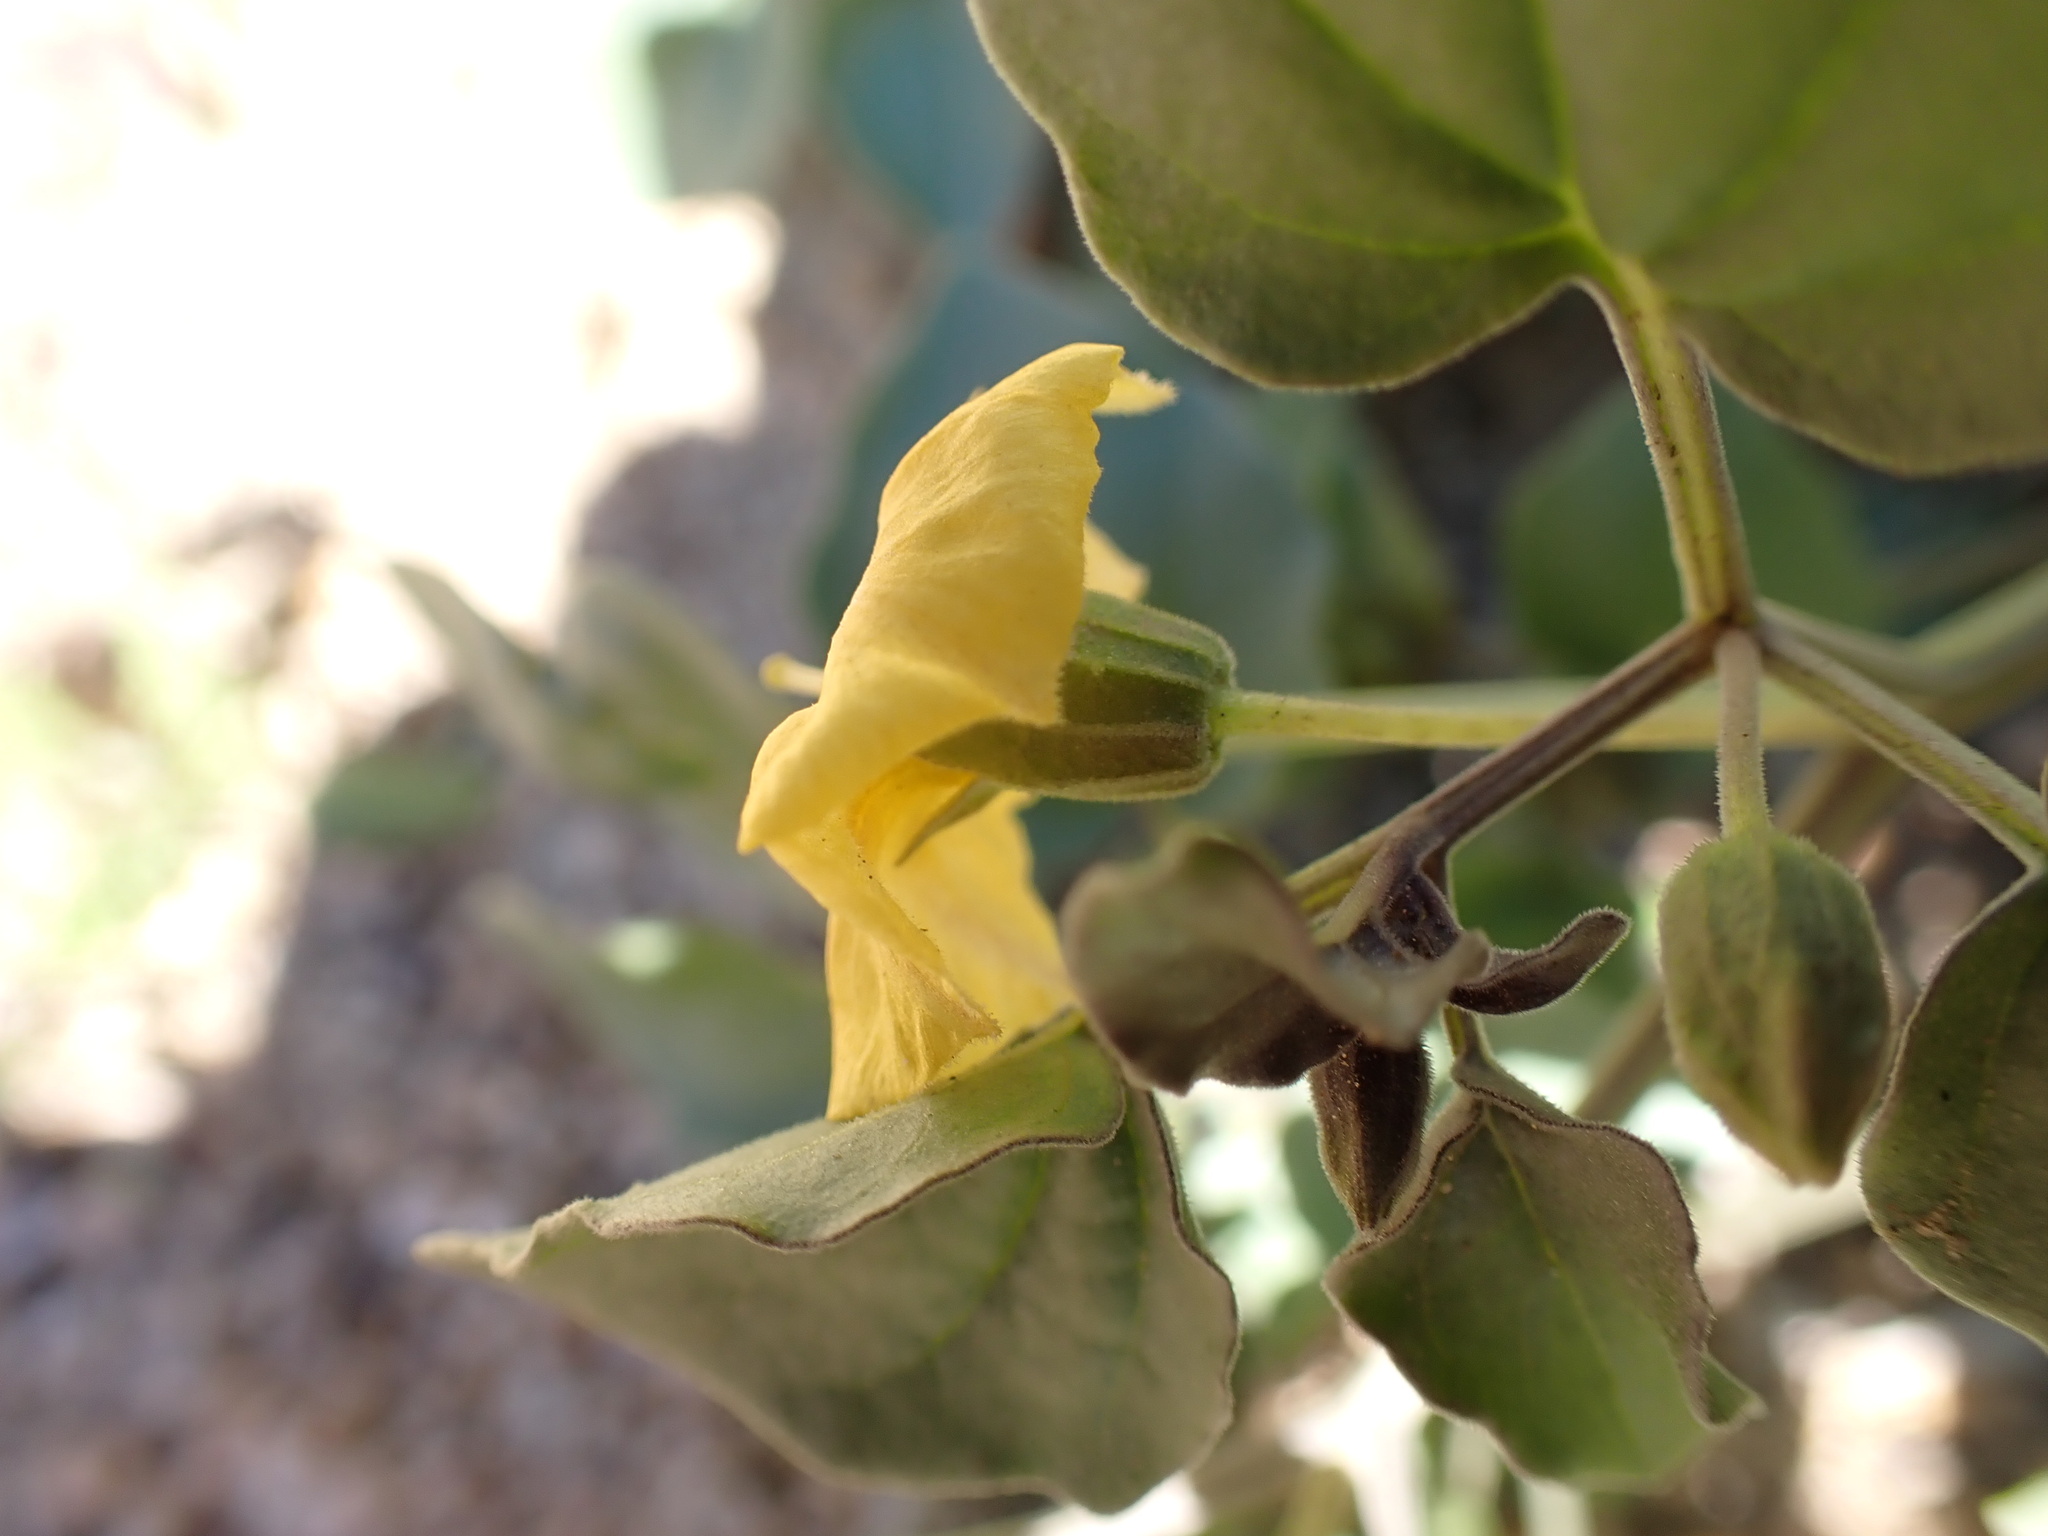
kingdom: Plantae
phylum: Tracheophyta
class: Magnoliopsida
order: Solanales
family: Solanaceae
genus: Physalis
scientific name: Physalis crassifolia
